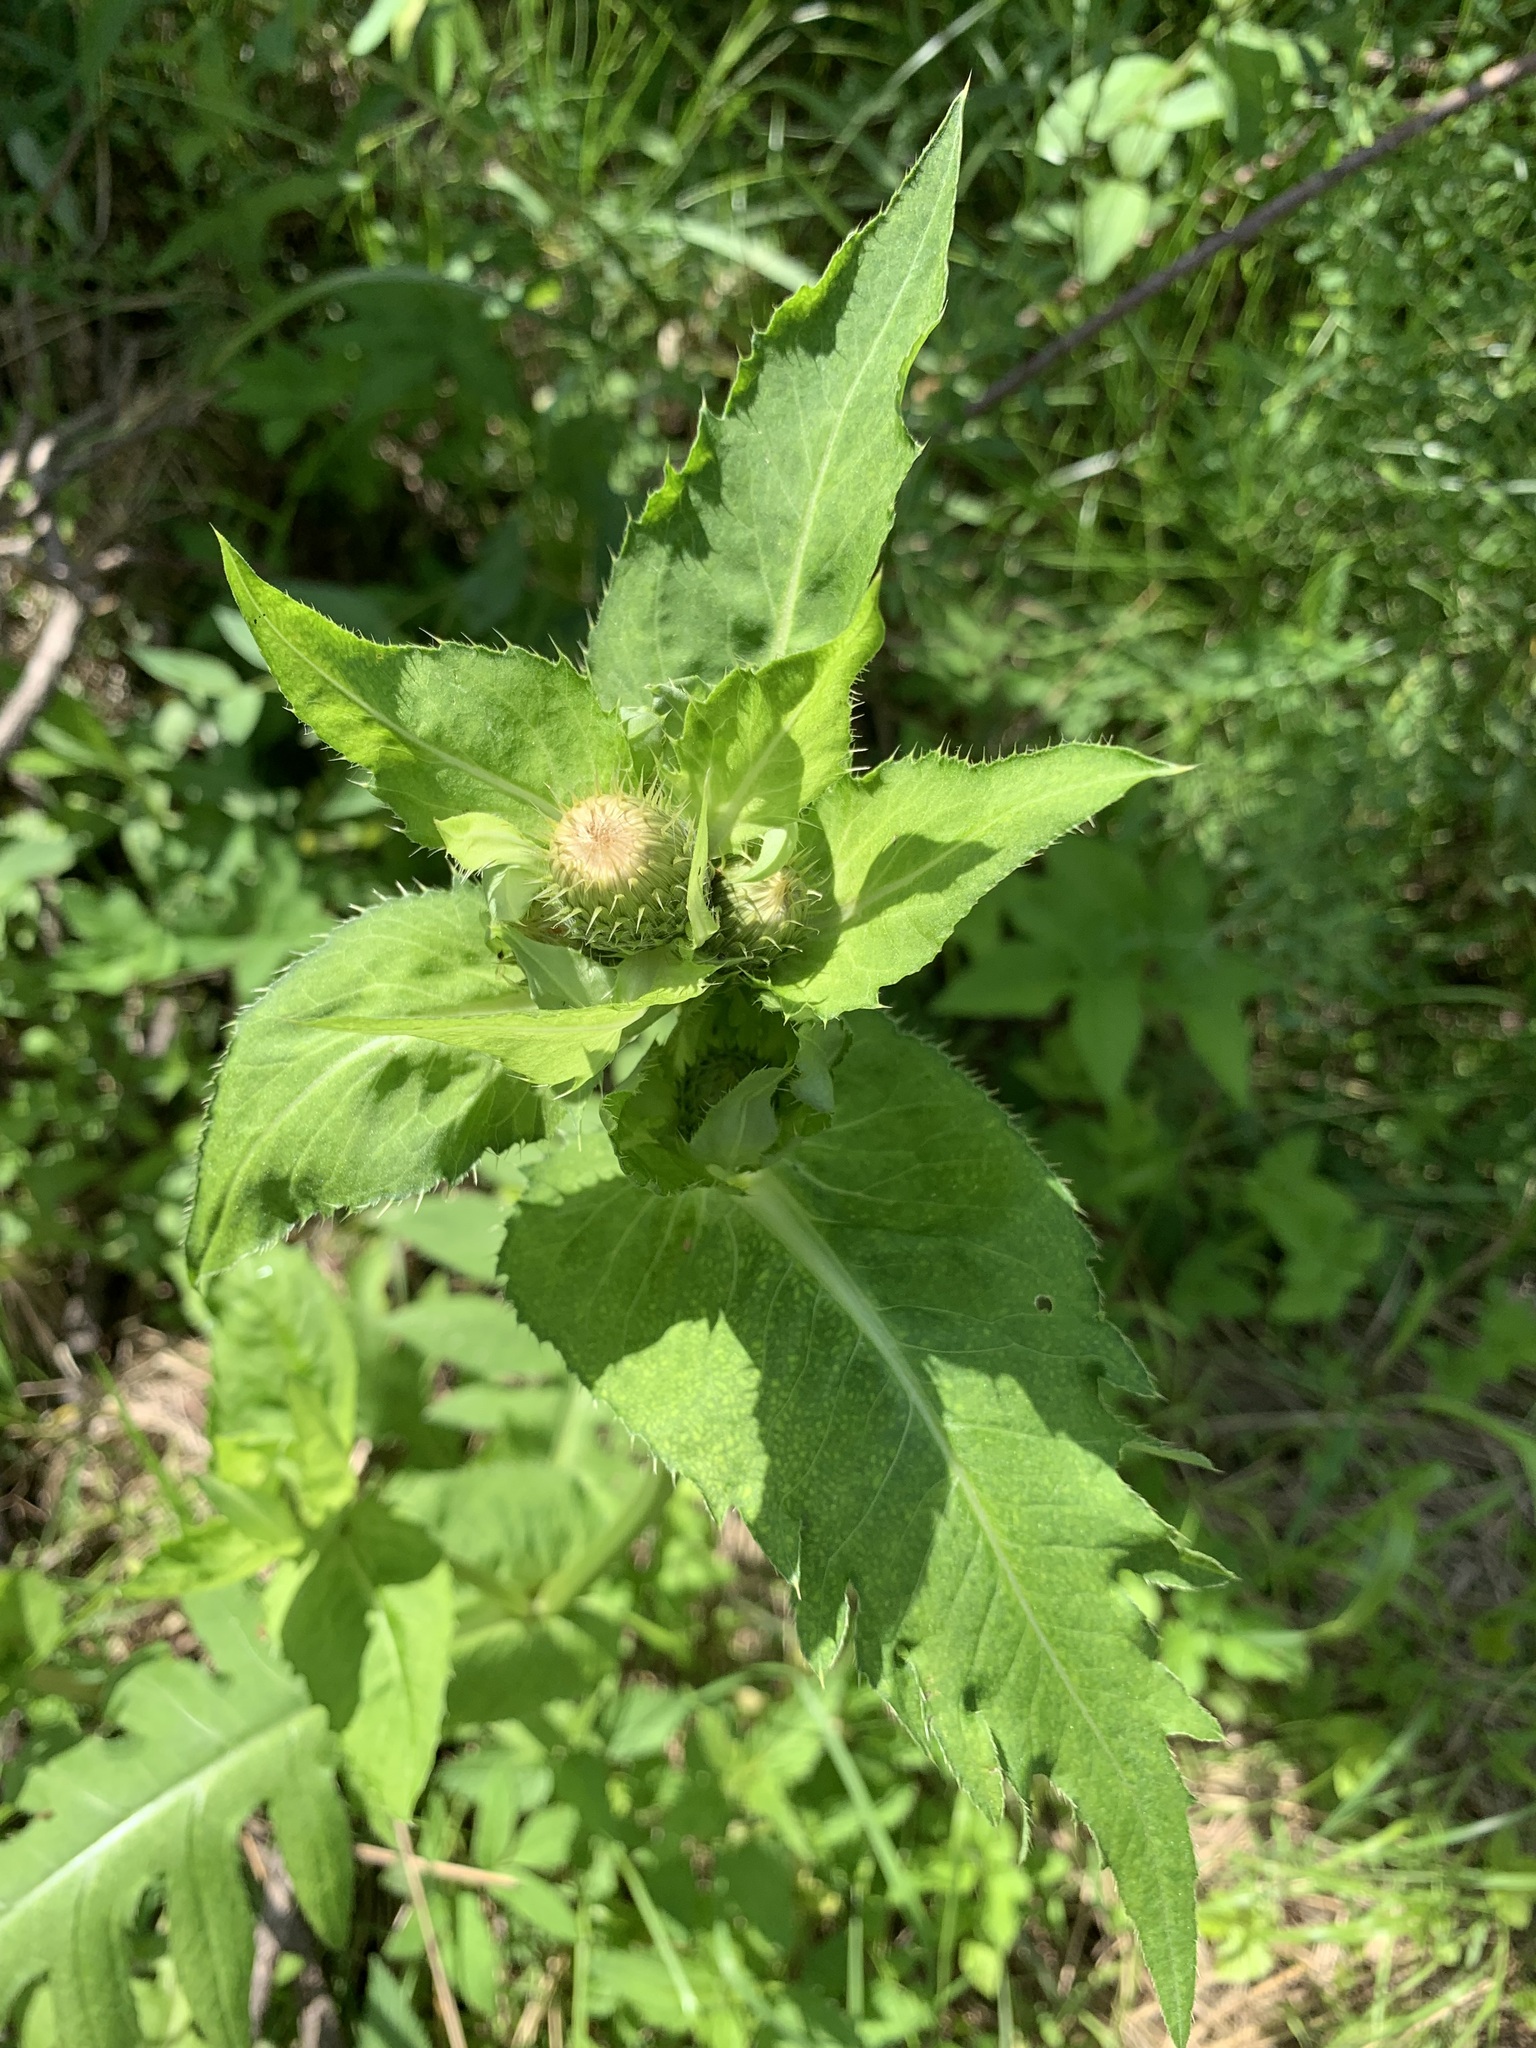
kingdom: Plantae
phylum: Tracheophyta
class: Magnoliopsida
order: Asterales
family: Asteraceae
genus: Cirsium
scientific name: Cirsium oleraceum
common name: Cabbage thistle
